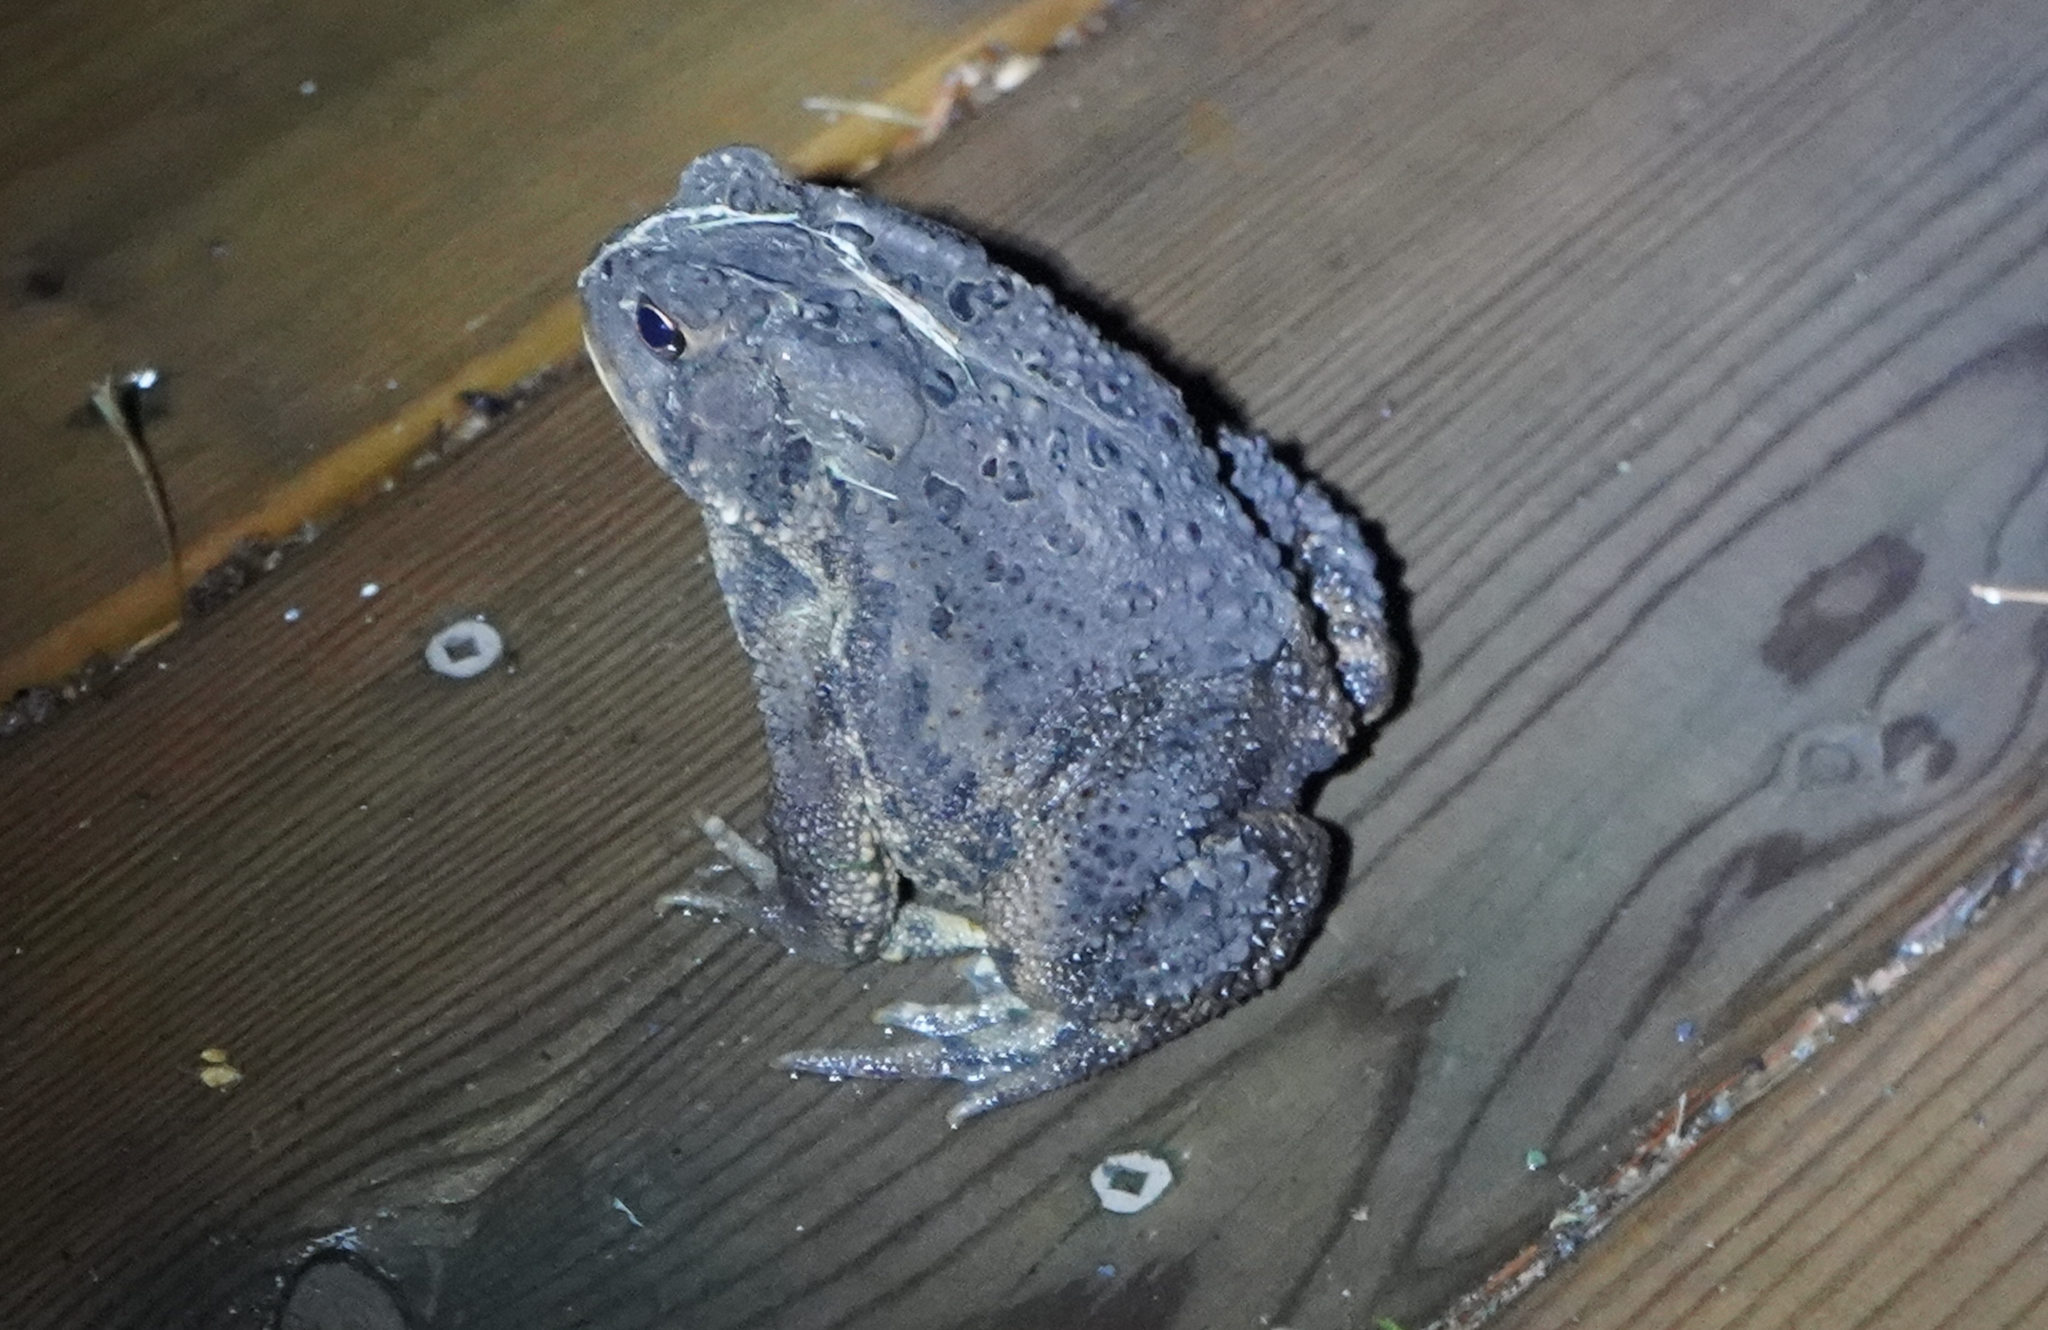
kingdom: Animalia
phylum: Chordata
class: Amphibia
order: Anura
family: Bufonidae
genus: Anaxyrus
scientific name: Anaxyrus americanus
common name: American toad
